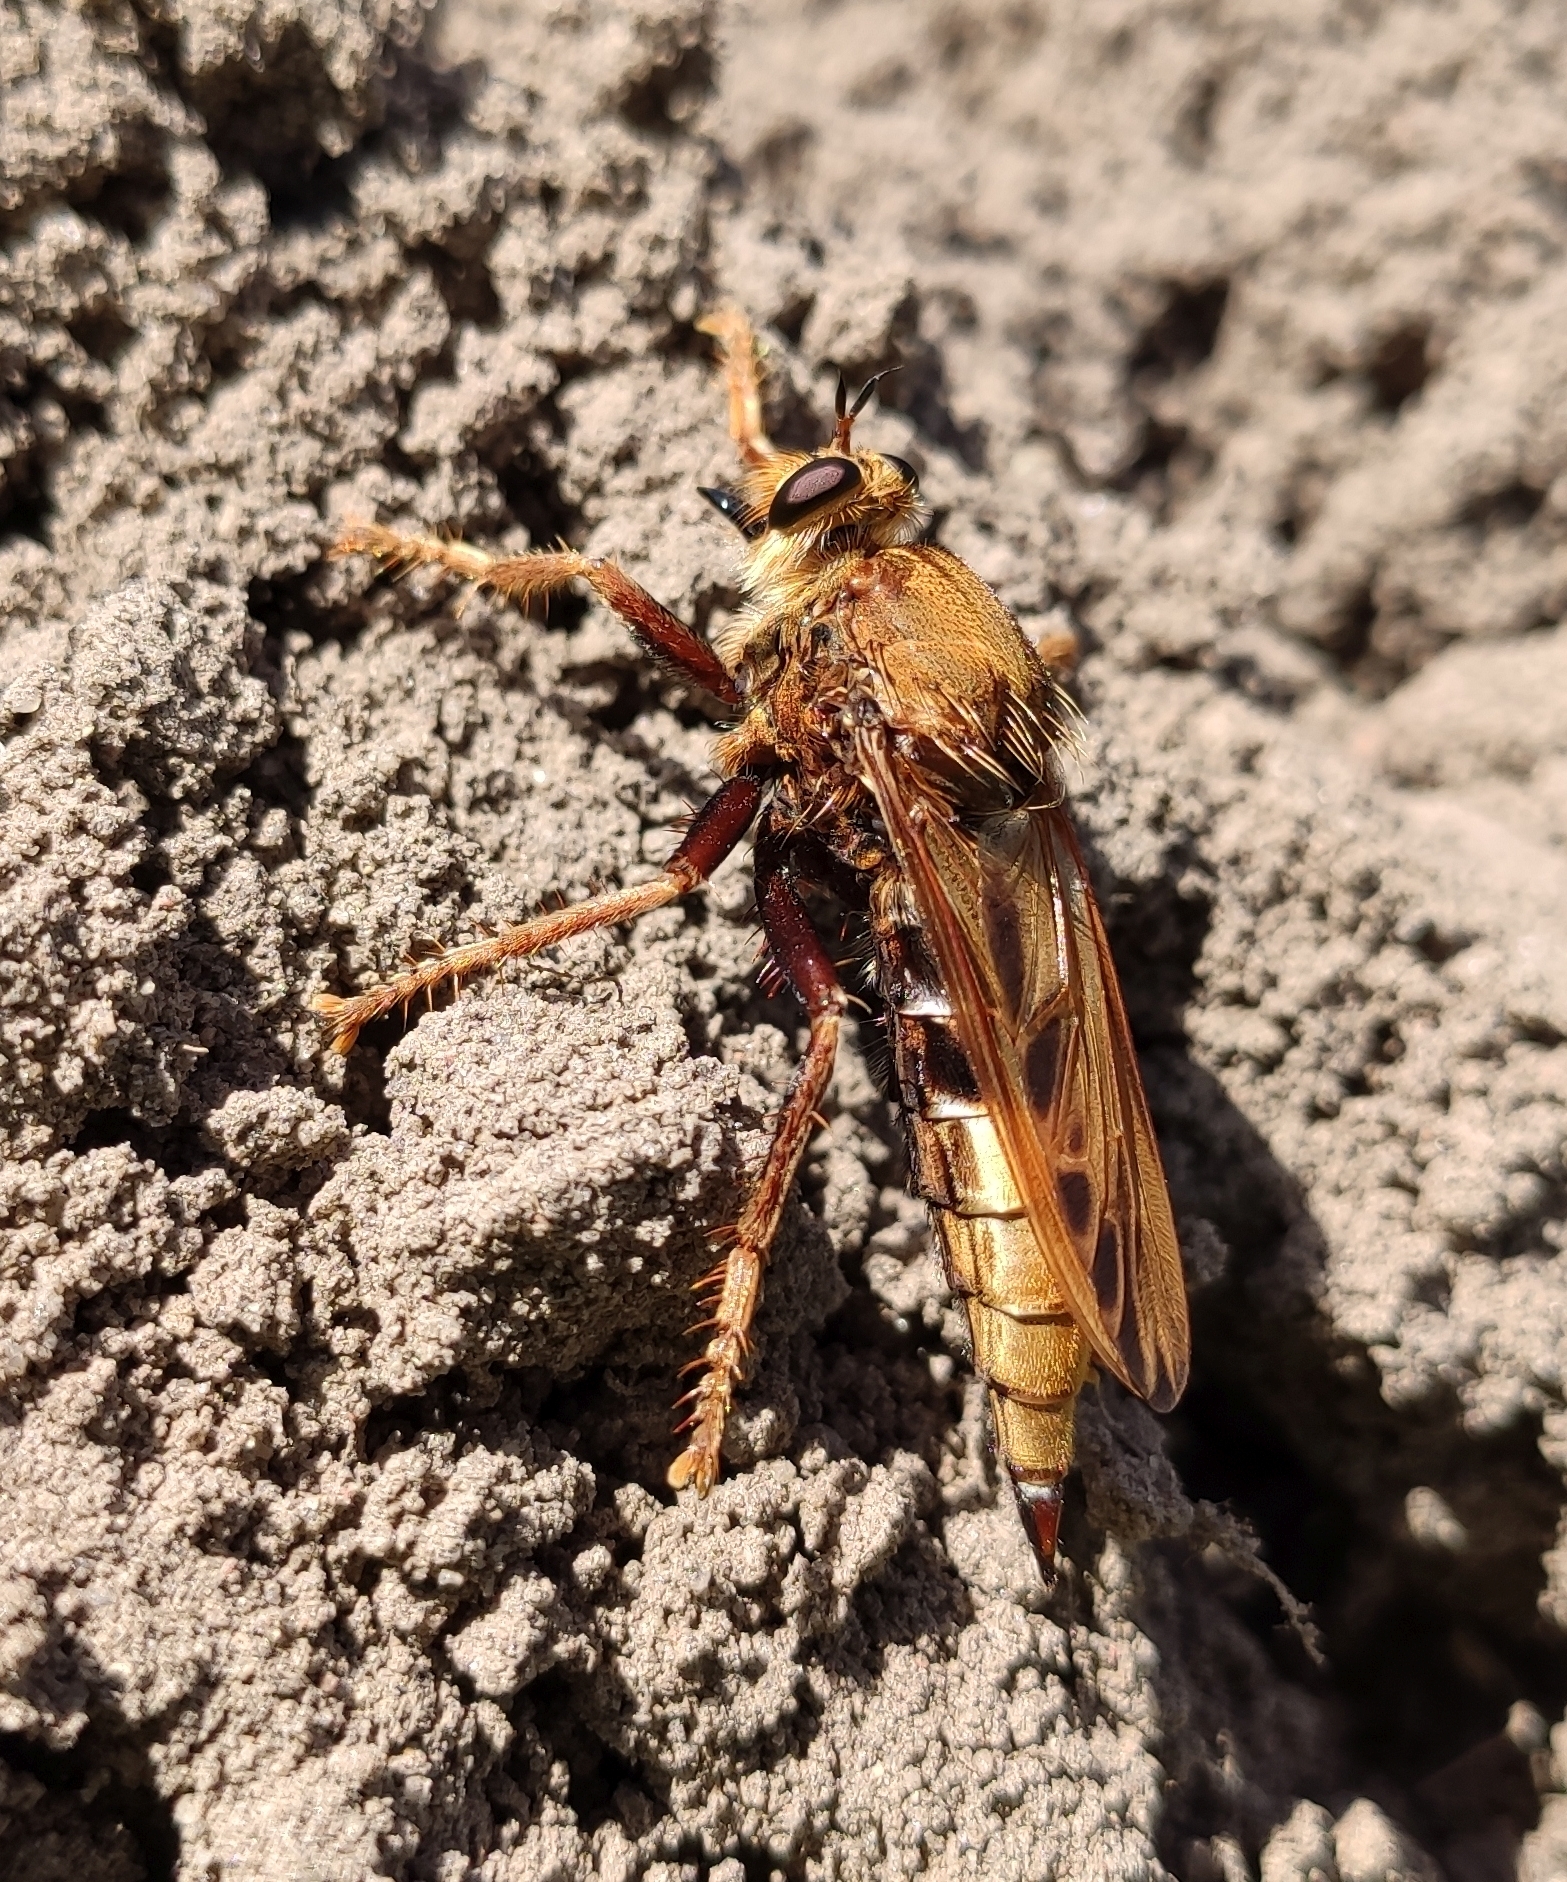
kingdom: Animalia
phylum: Arthropoda
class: Insecta
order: Diptera
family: Asilidae
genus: Asilus
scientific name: Asilus crabroniformis
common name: Hornet robberfly
